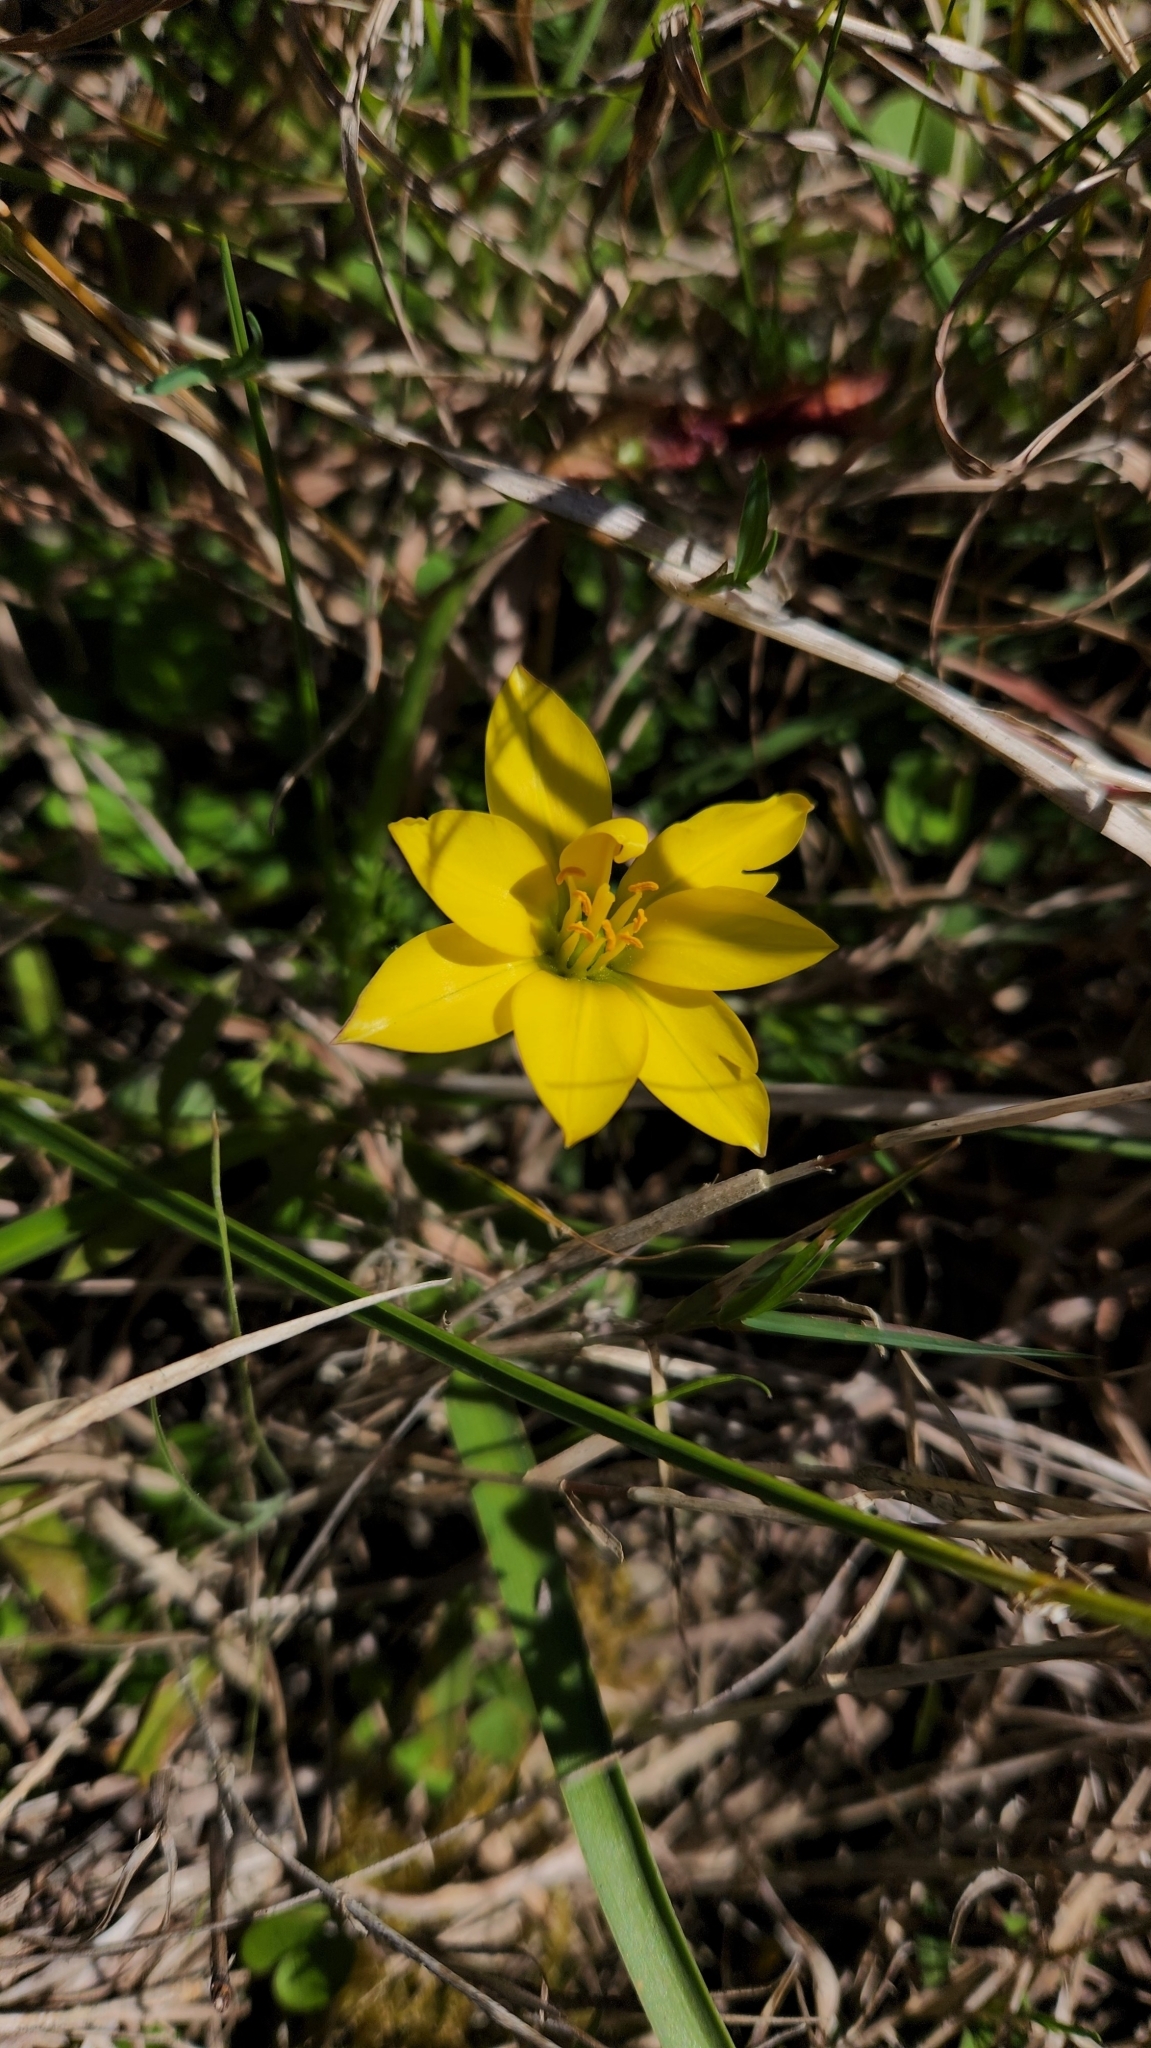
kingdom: Plantae
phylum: Tracheophyta
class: Liliopsida
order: Asparagales
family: Amaryllidaceae
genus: Nothoscordum
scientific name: Nothoscordum felipponei
